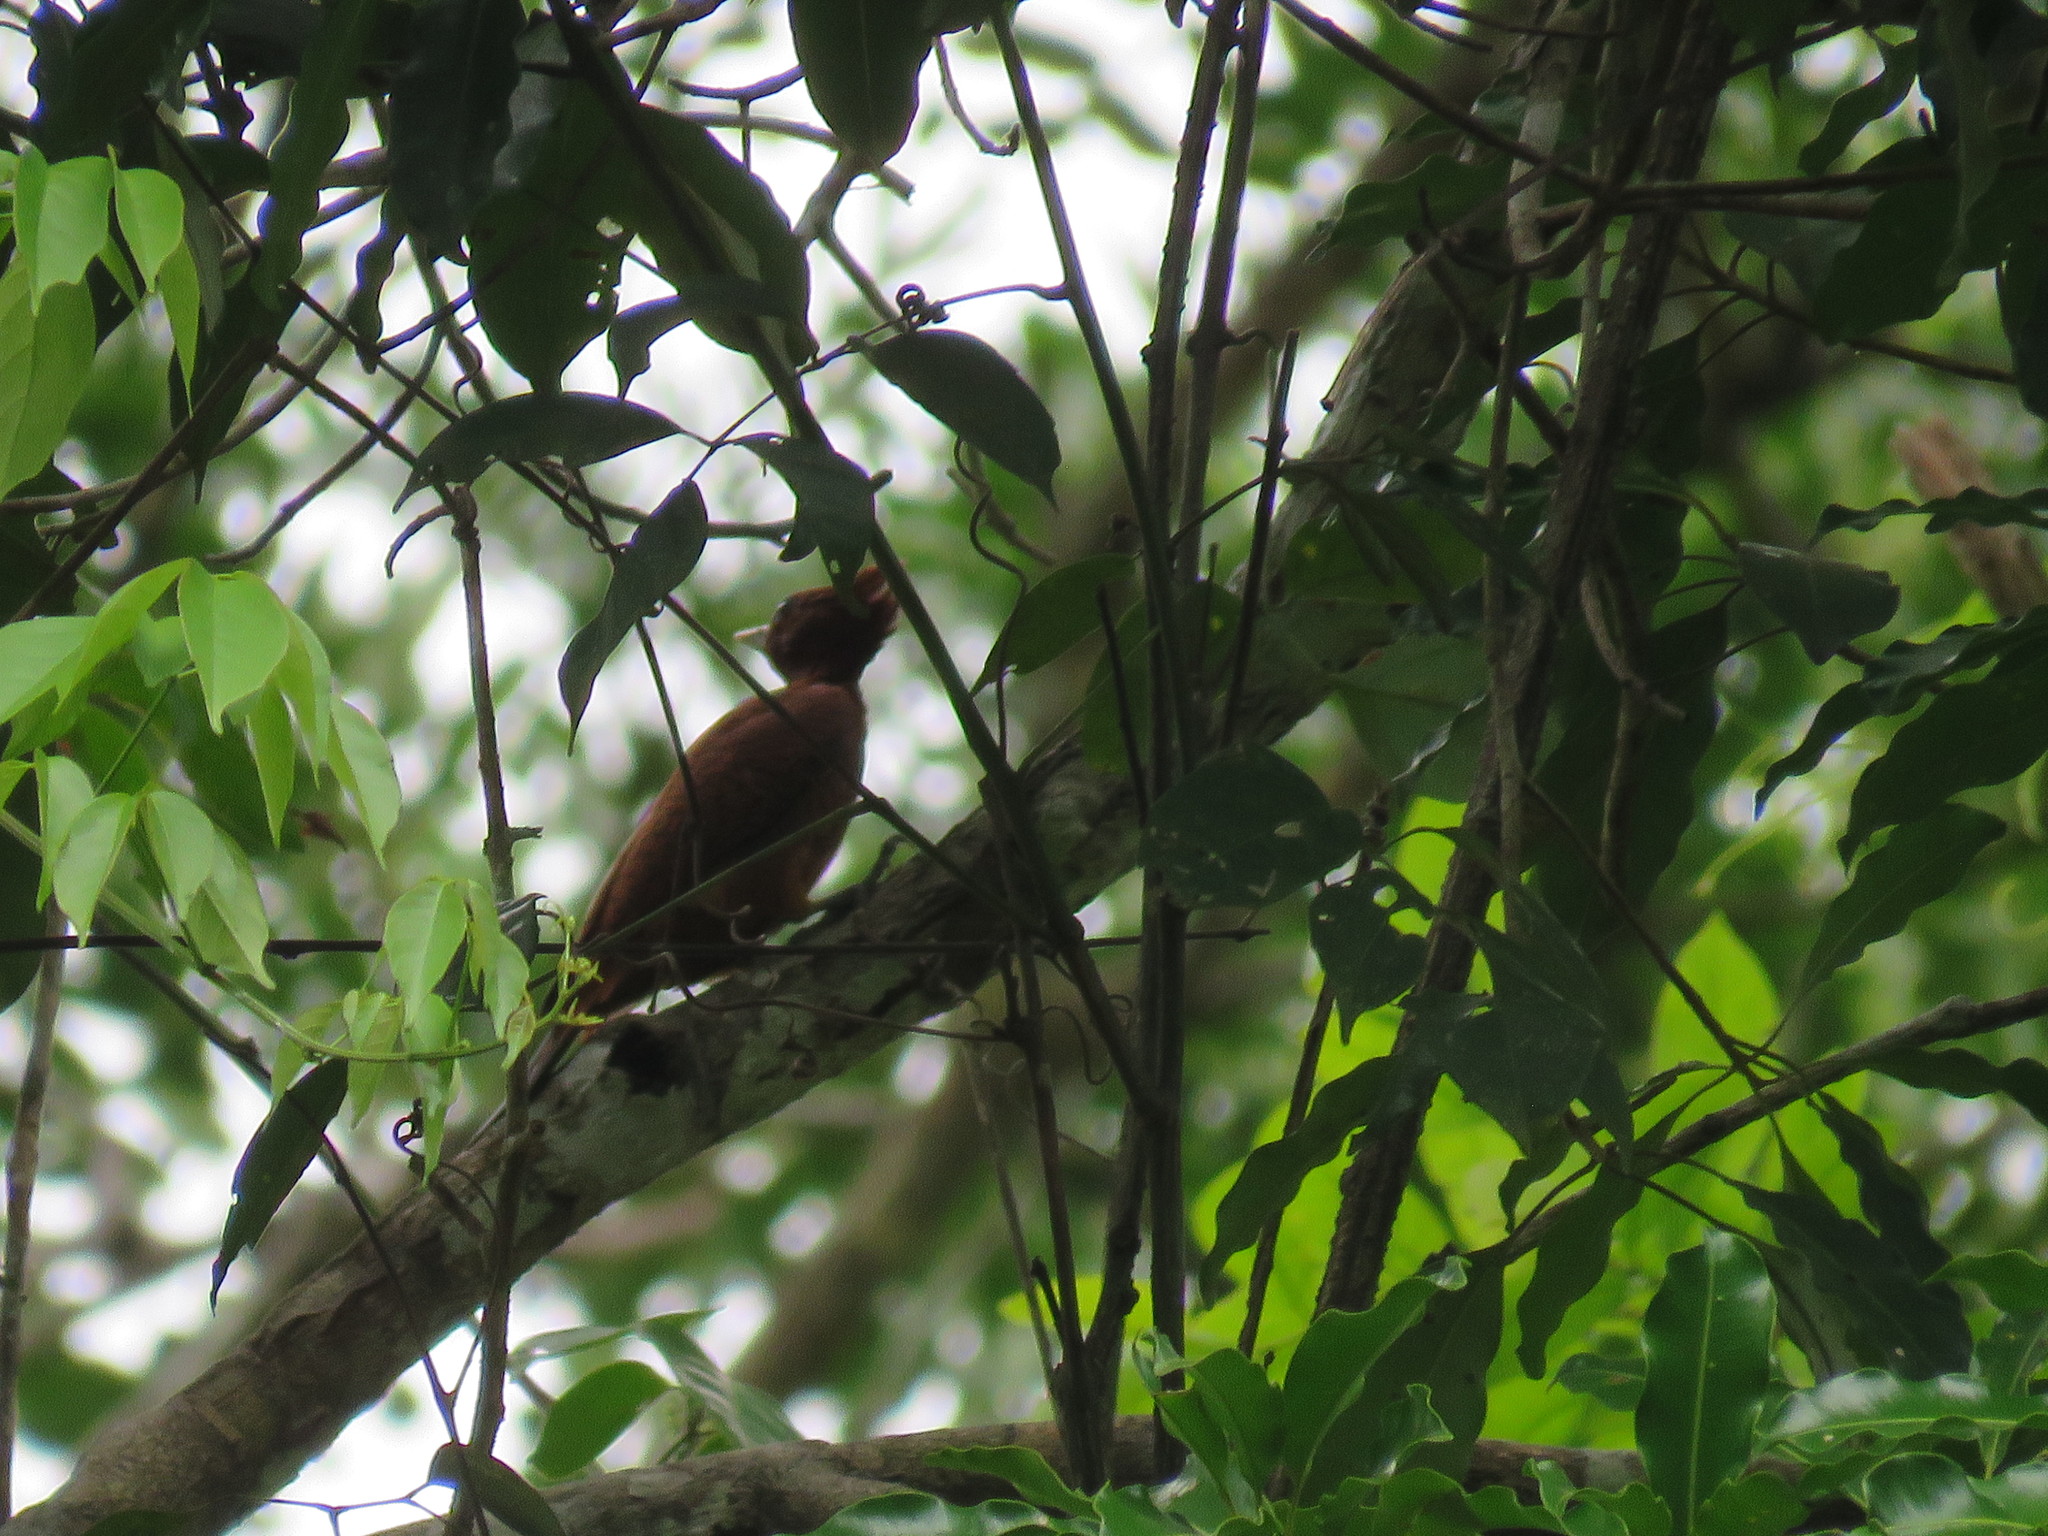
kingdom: Animalia
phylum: Chordata
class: Aves
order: Piciformes
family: Picidae
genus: Celeus
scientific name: Celeus elegans
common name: Chestnut woodpecker
